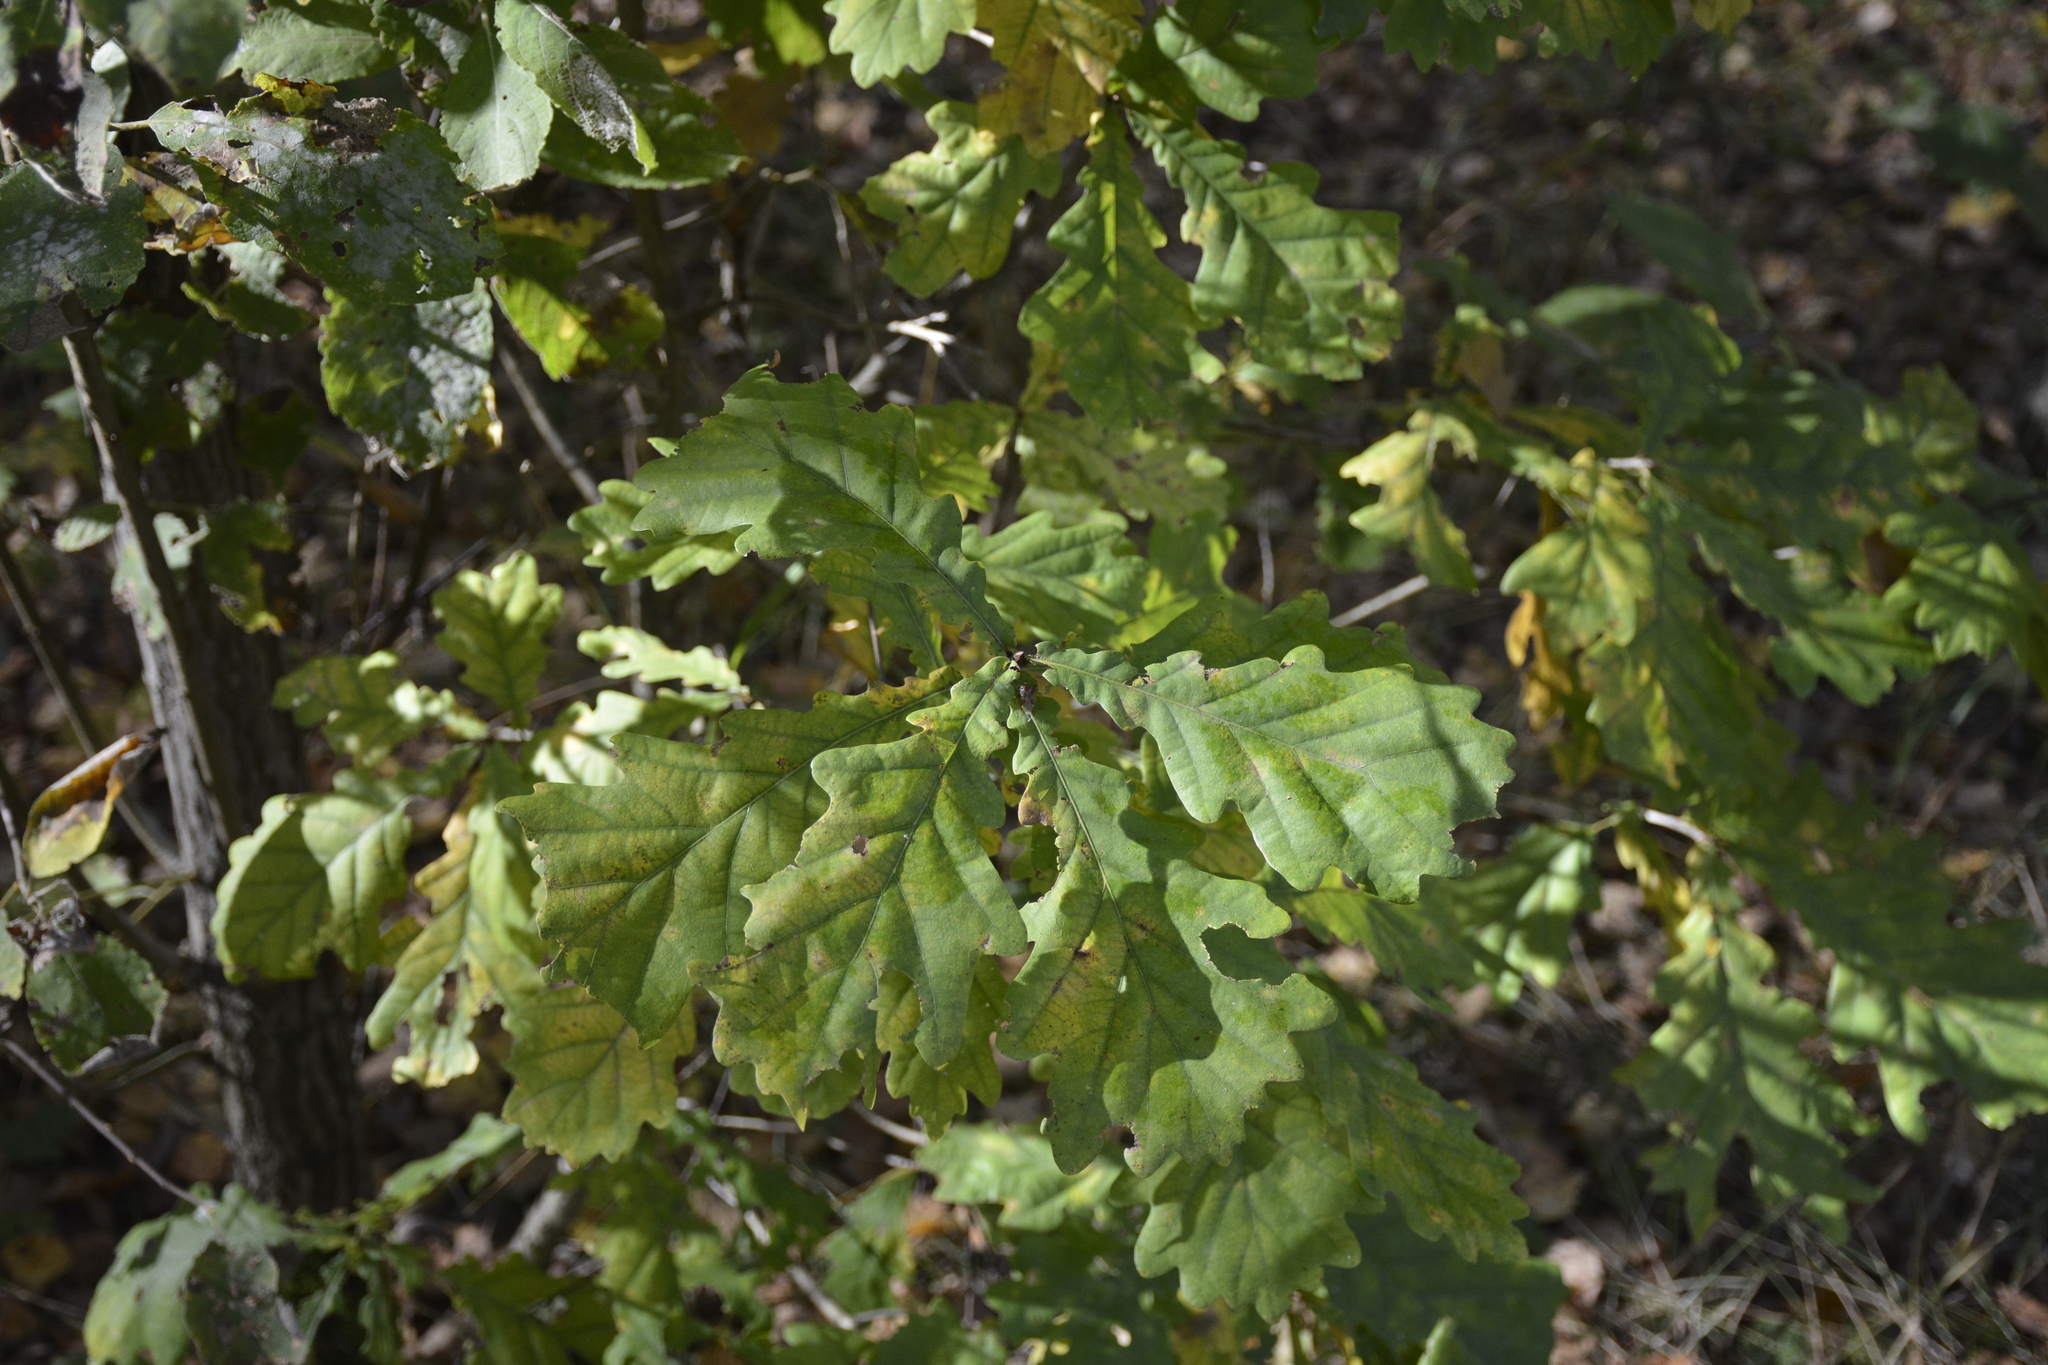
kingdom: Plantae
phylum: Tracheophyta
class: Magnoliopsida
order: Fagales
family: Fagaceae
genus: Quercus
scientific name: Quercus robur
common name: Pedunculate oak
